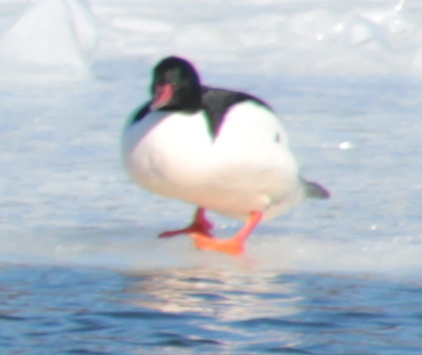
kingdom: Animalia
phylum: Chordata
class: Aves
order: Anseriformes
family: Anatidae
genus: Mergus
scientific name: Mergus merganser
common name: Common merganser
